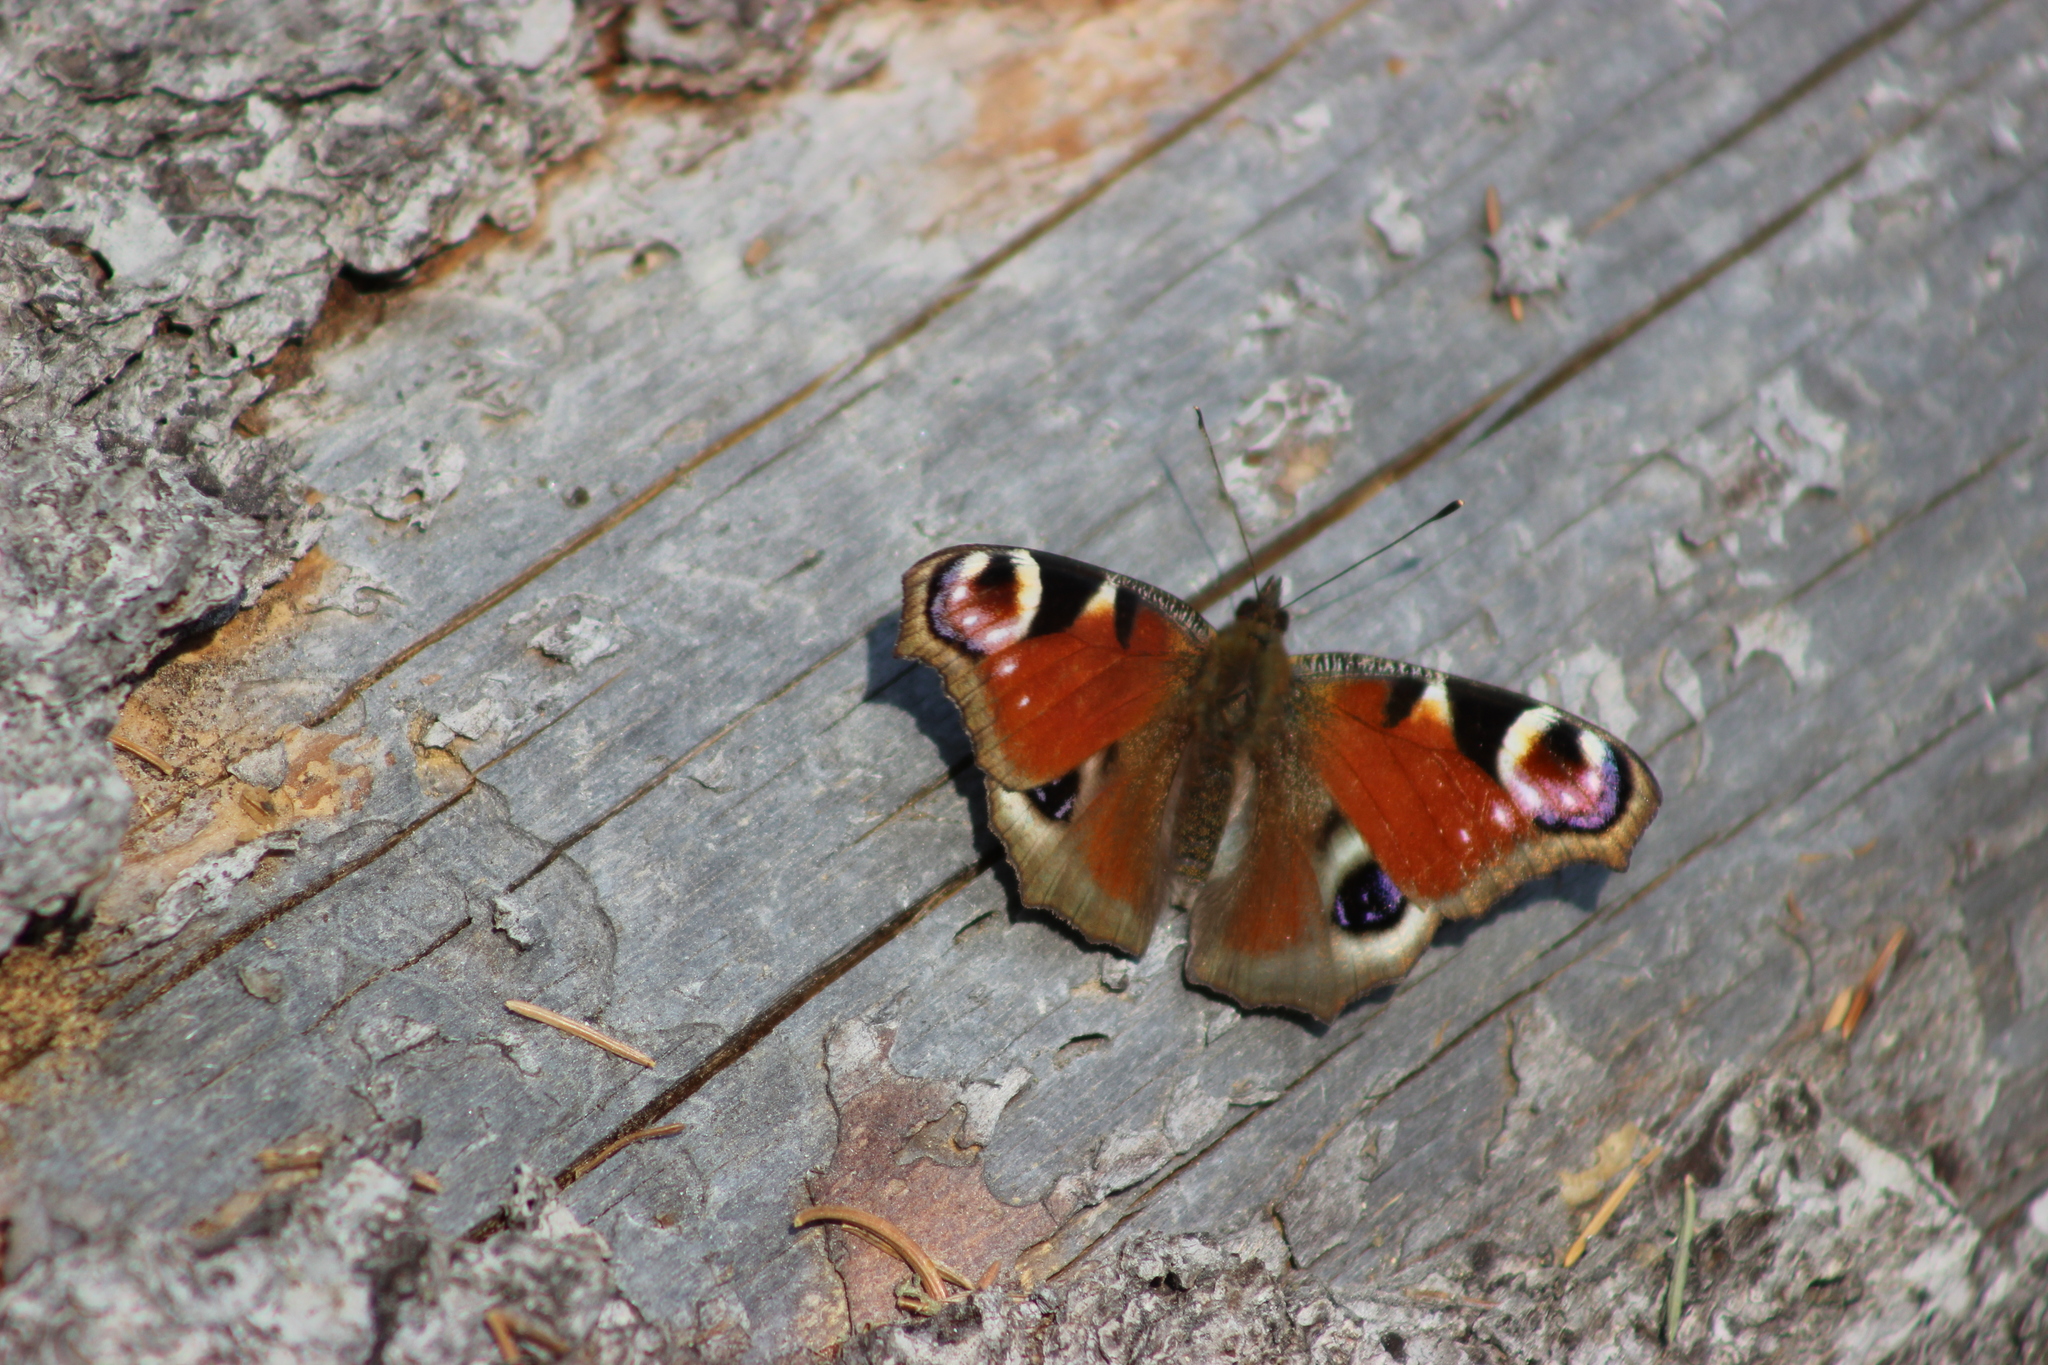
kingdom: Animalia
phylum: Arthropoda
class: Insecta
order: Lepidoptera
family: Nymphalidae
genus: Aglais
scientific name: Aglais io
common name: Peacock
